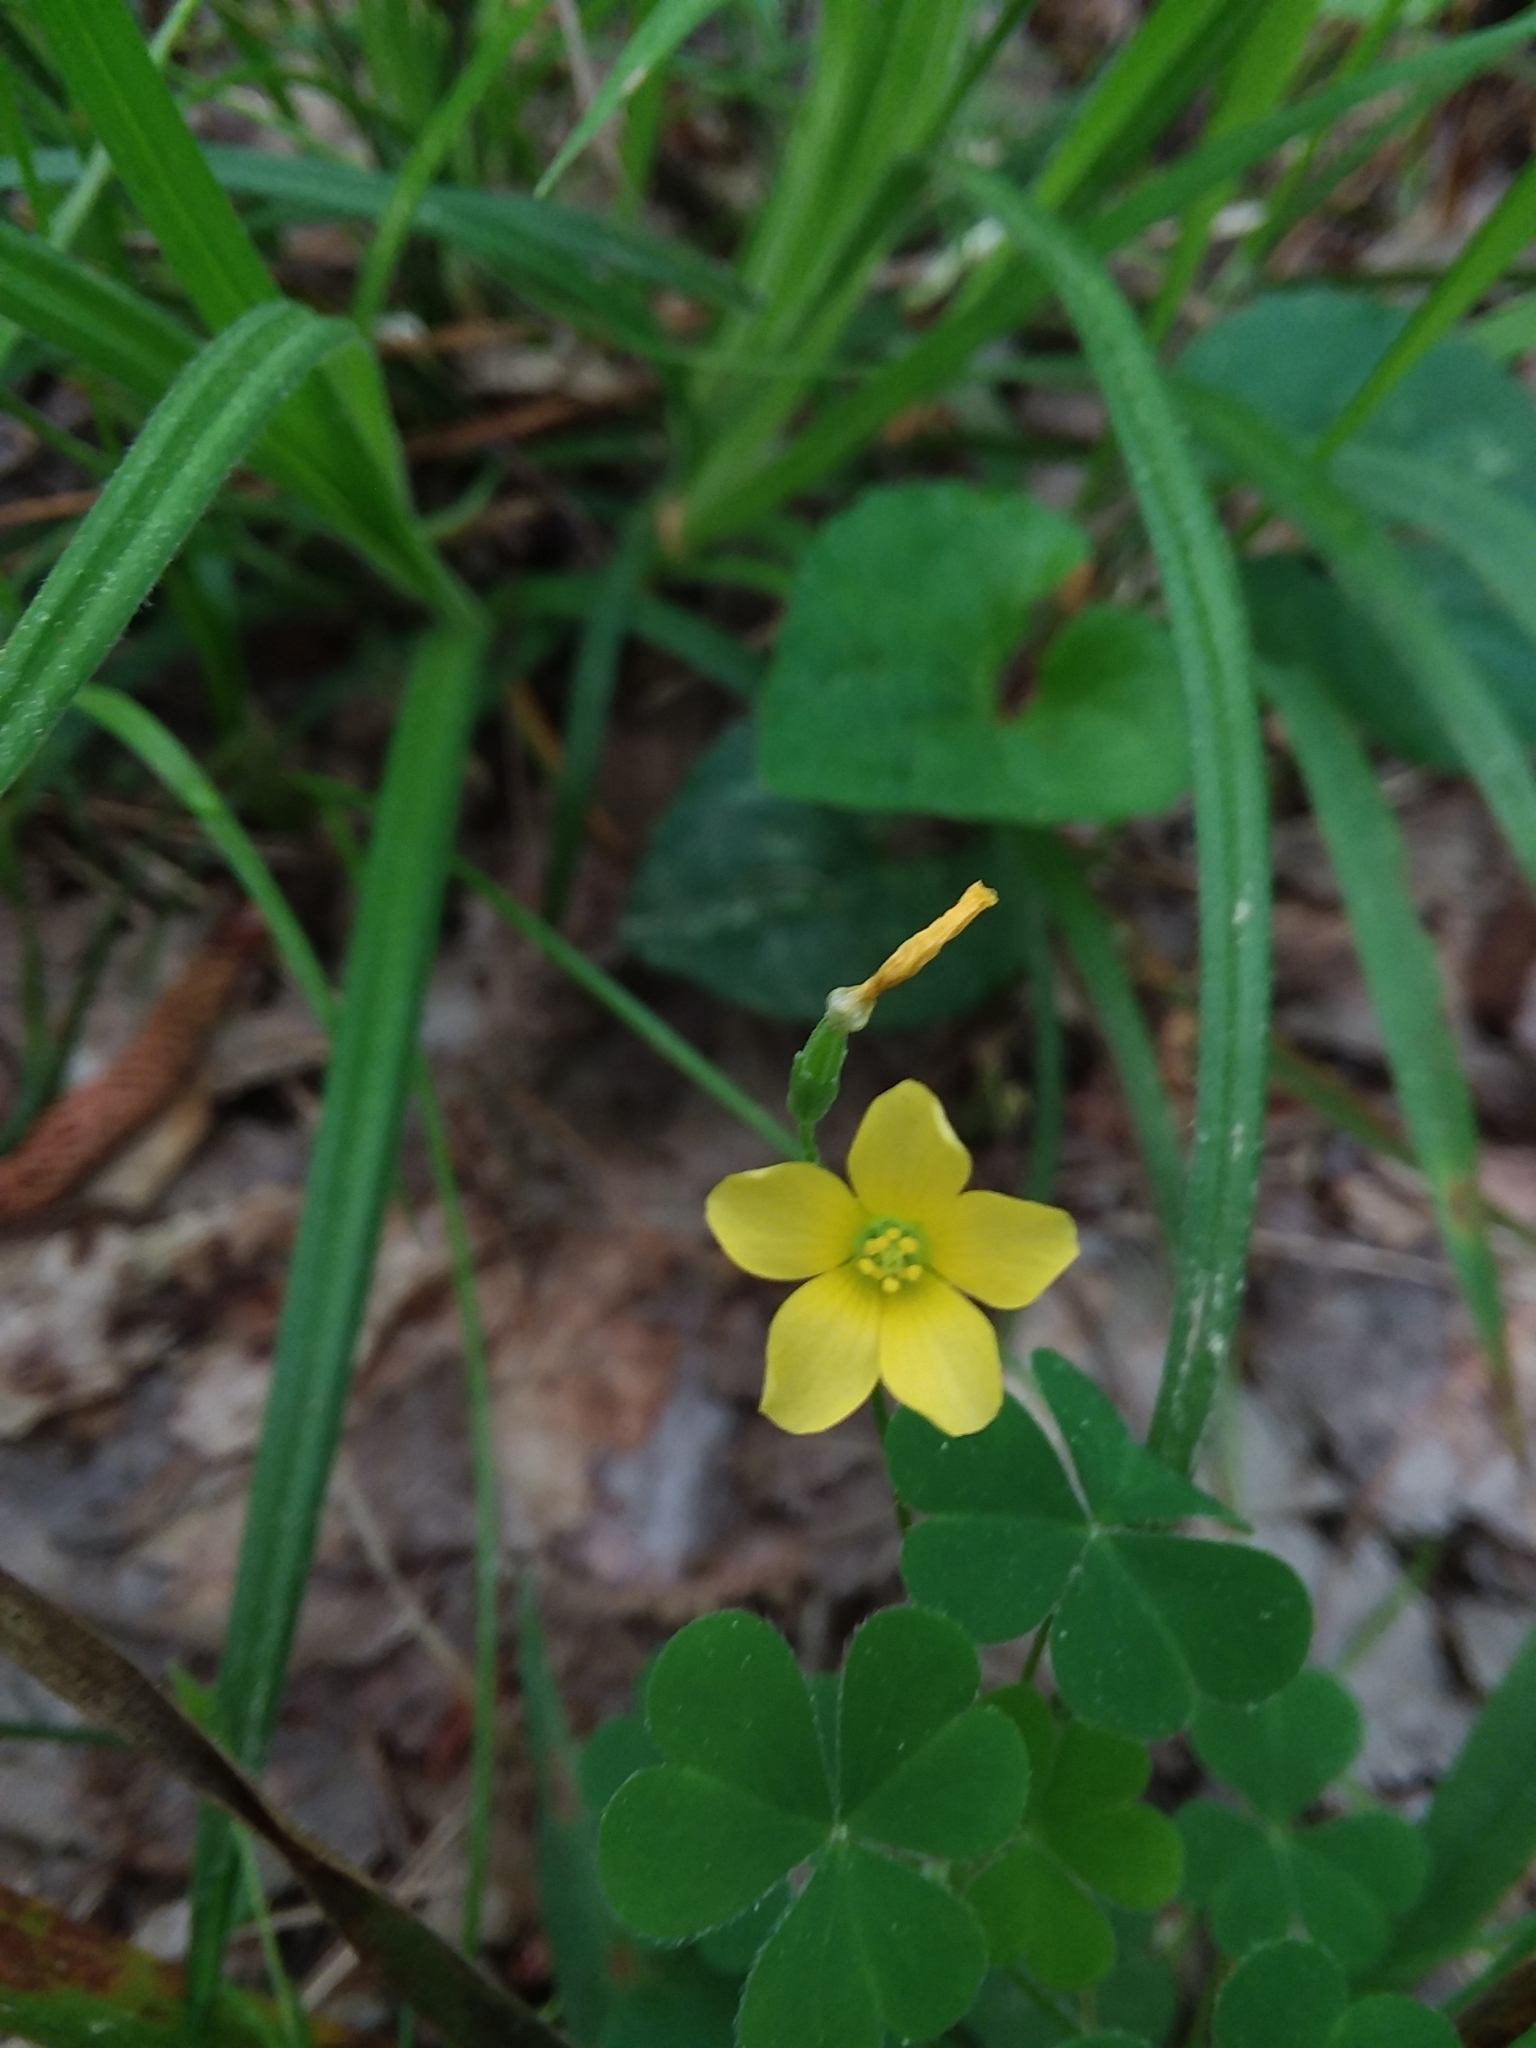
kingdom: Plantae
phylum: Tracheophyta
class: Magnoliopsida
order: Oxalidales
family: Oxalidaceae
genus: Oxalis
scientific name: Oxalis dillenii
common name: Sussex yellow-sorrel
